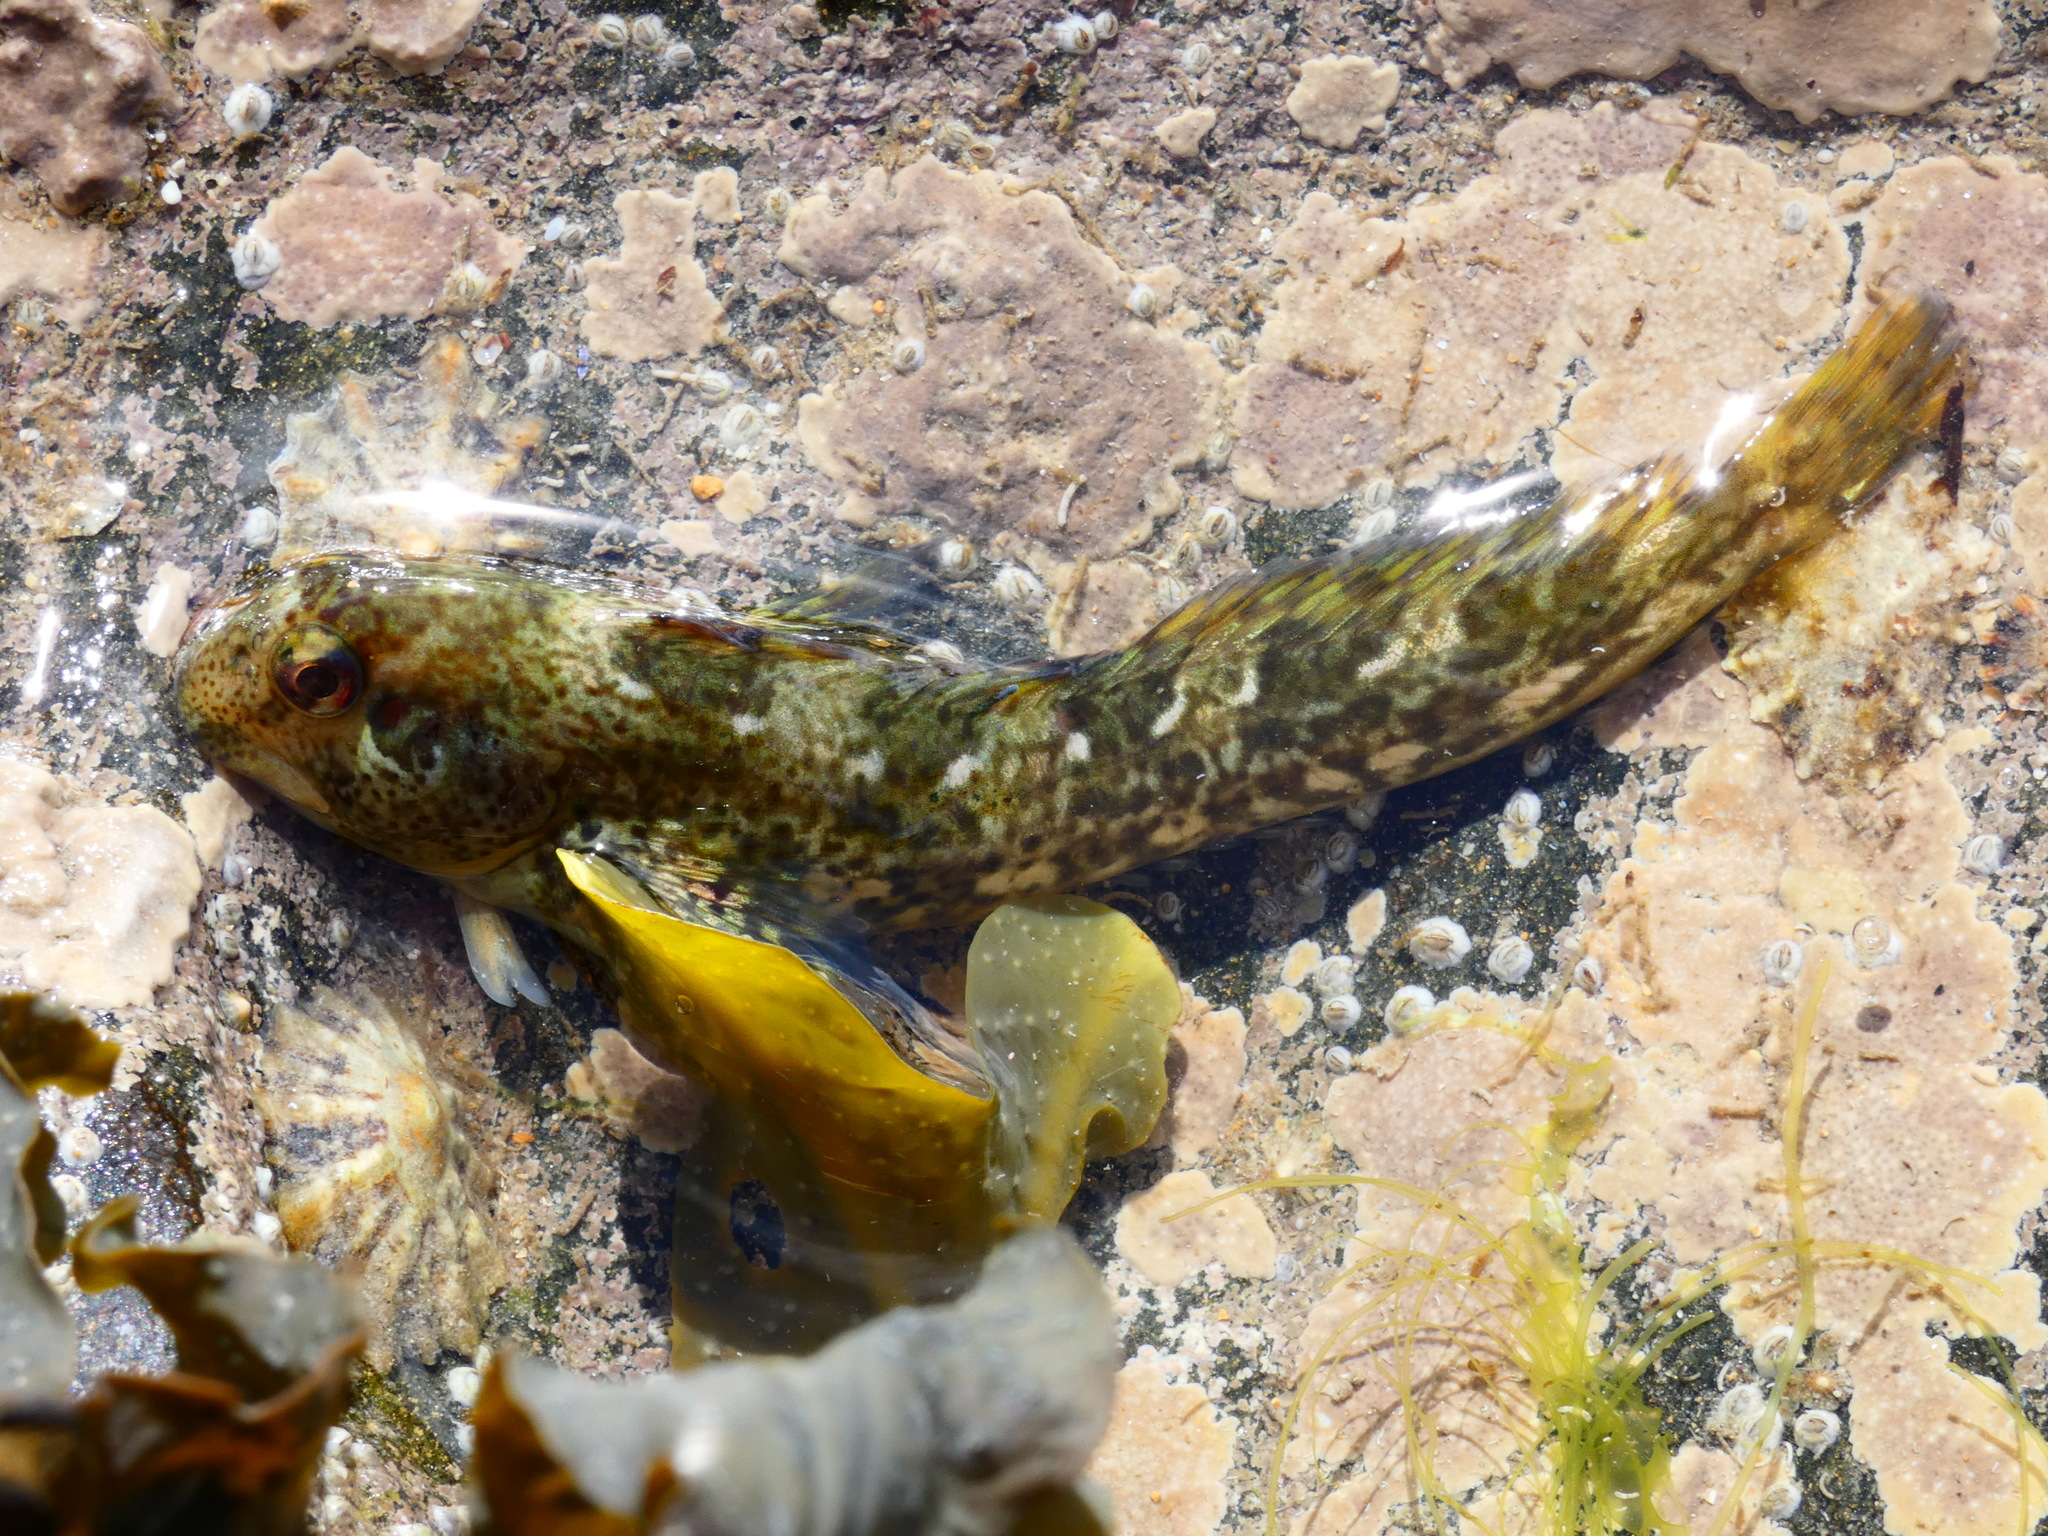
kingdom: Animalia
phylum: Chordata
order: Perciformes
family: Blenniidae
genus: Lipophrys
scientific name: Lipophrys pholis
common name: Shanny
